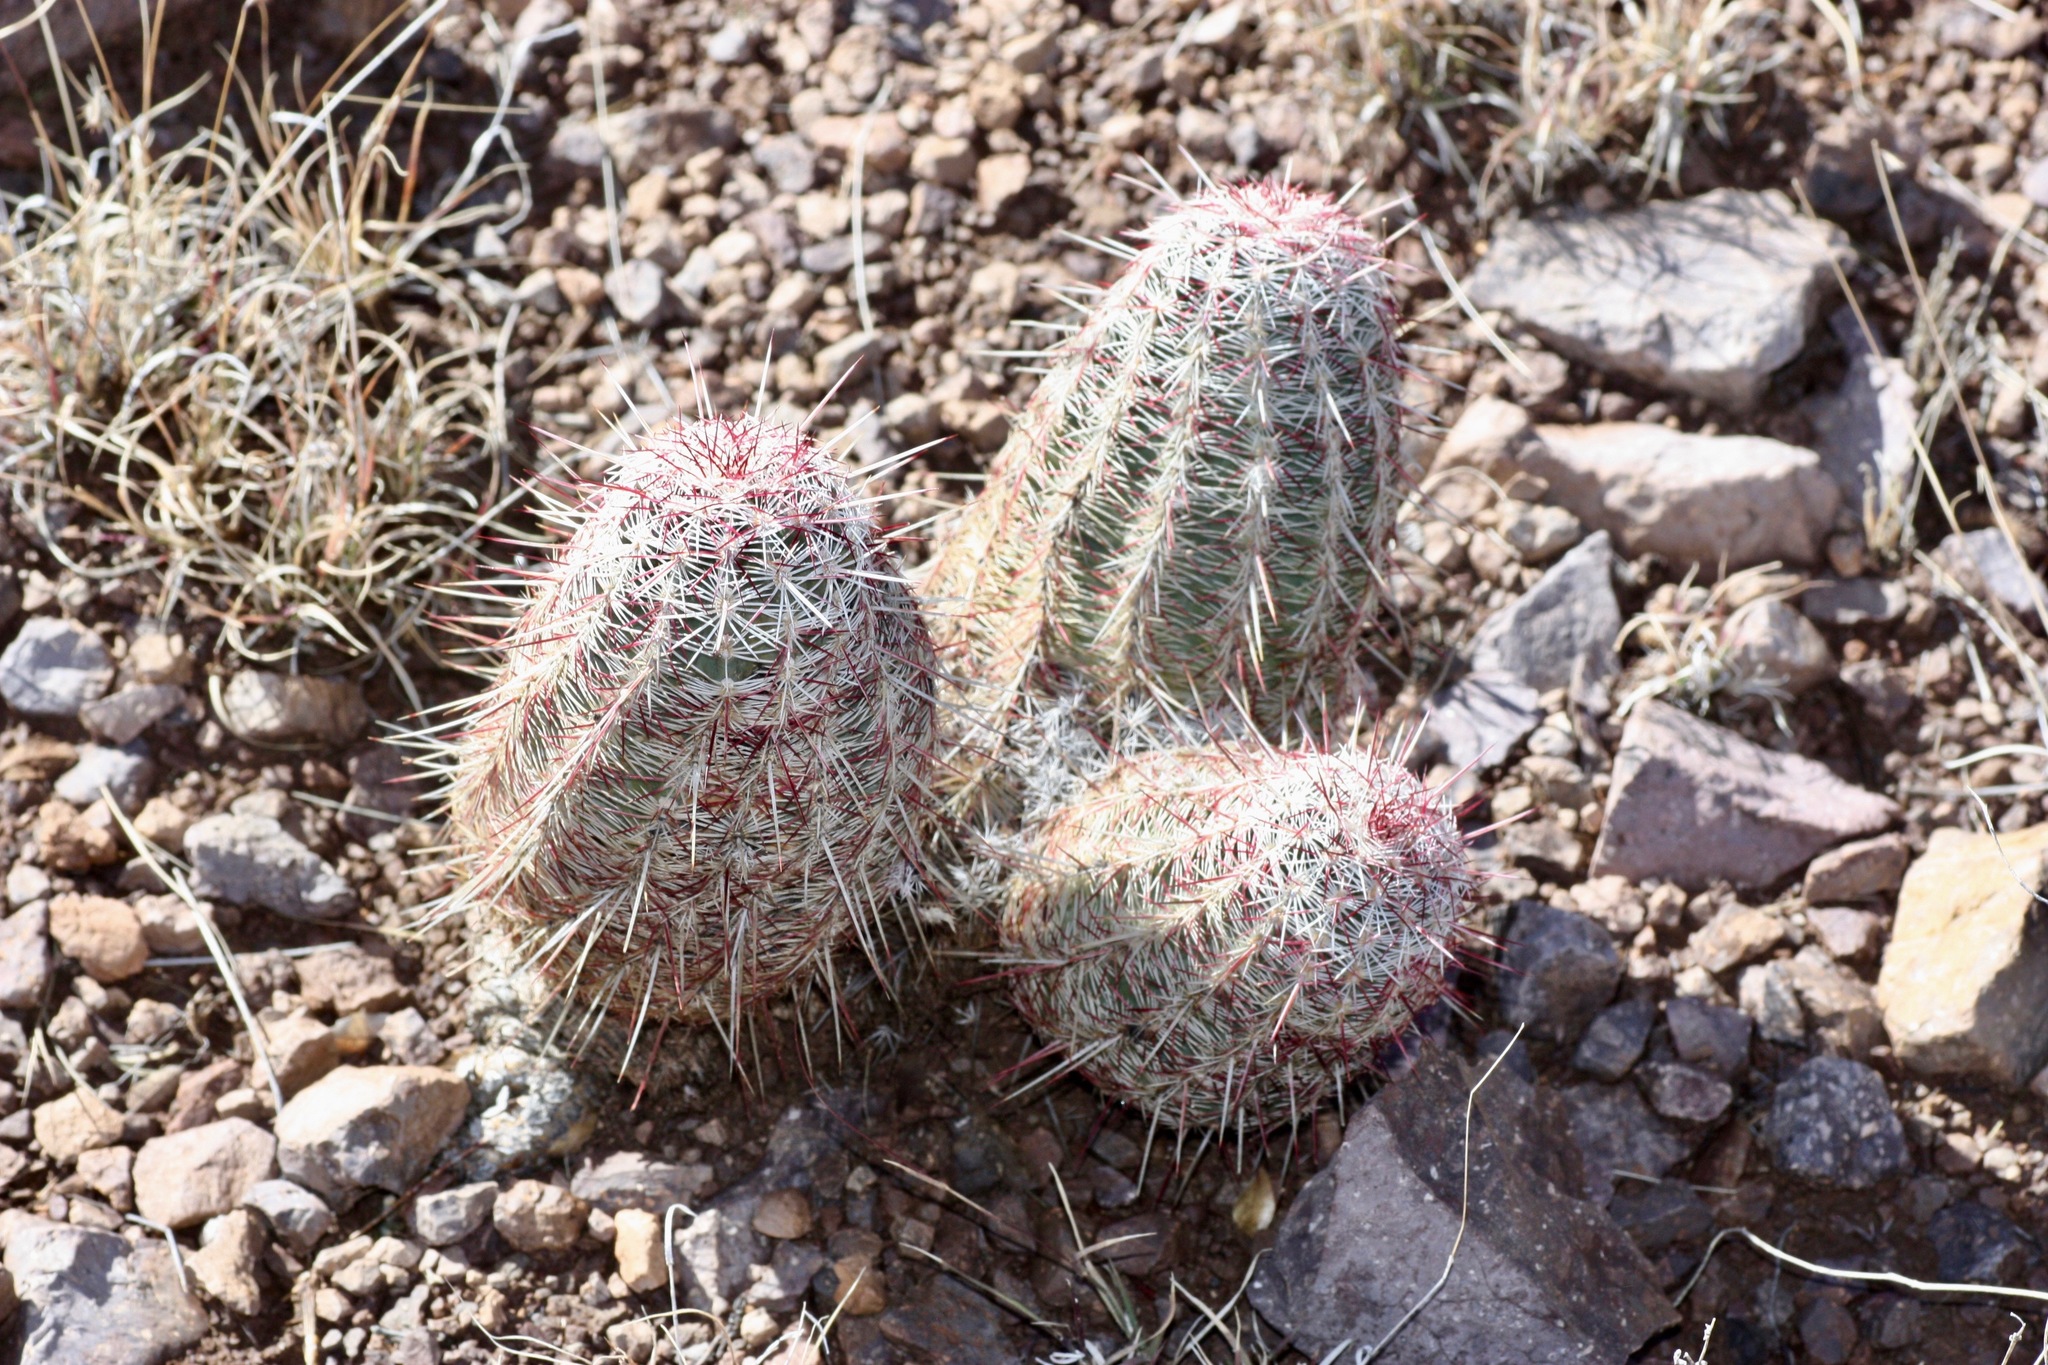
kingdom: Plantae
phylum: Tracheophyta
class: Magnoliopsida
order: Caryophyllales
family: Cactaceae
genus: Echinocereus
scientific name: Echinocereus viridiflorus
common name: Nylon hedgehog cactus
